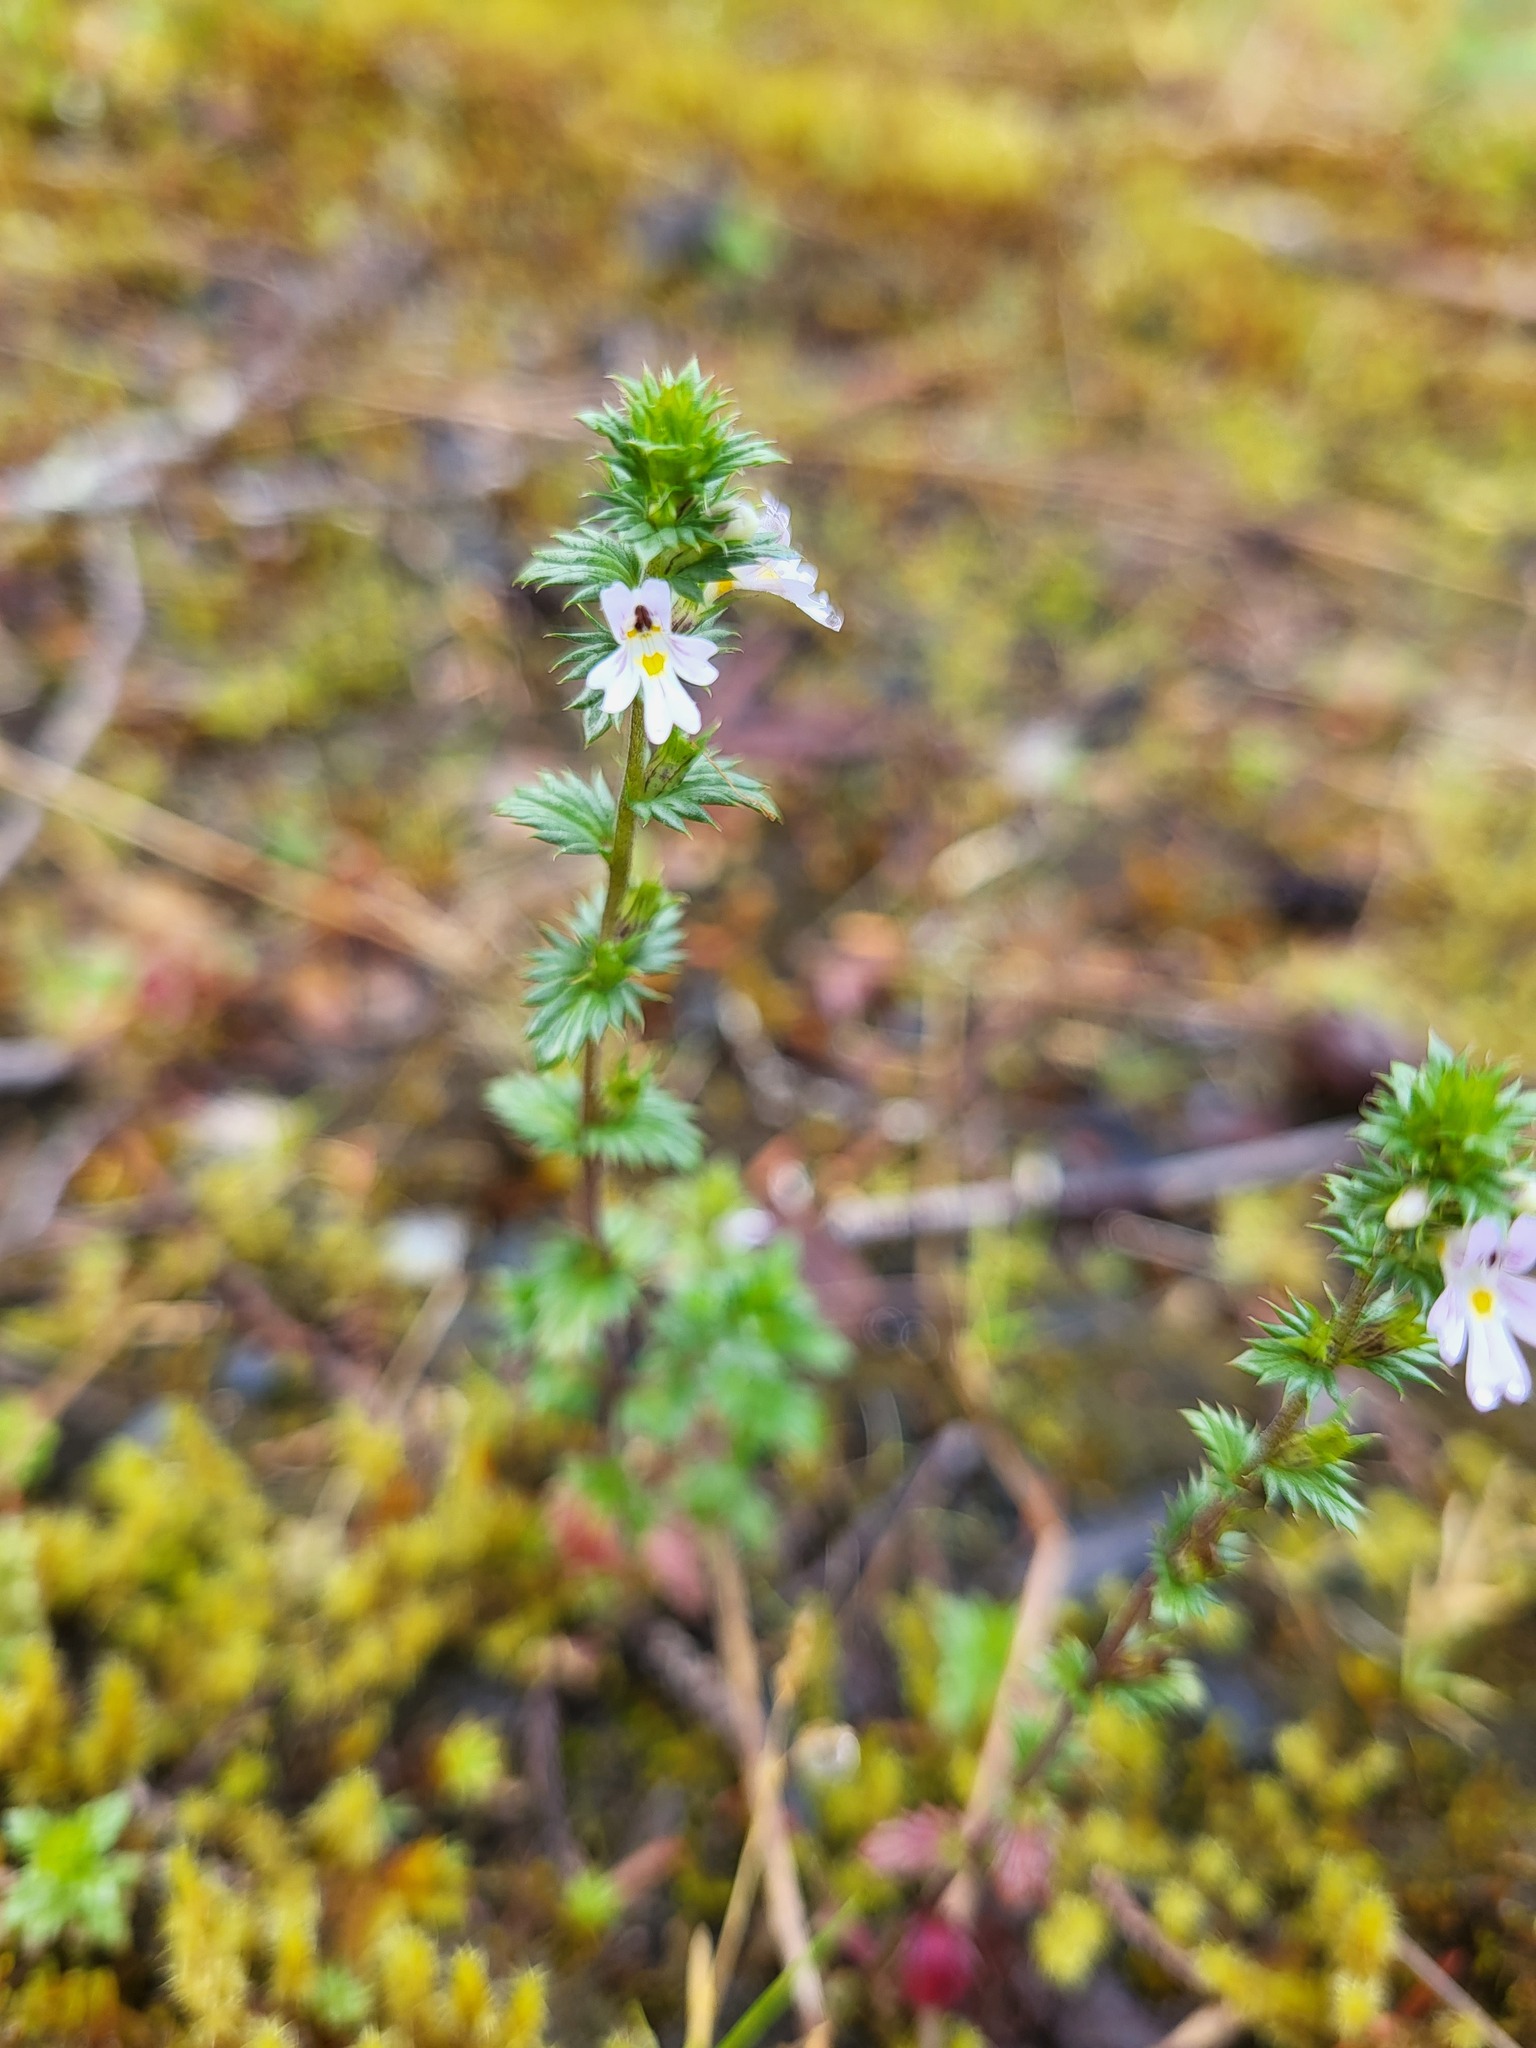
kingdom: Plantae
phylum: Tracheophyta
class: Magnoliopsida
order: Lamiales
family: Orobanchaceae
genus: Euphrasia
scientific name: Euphrasia nemorosa
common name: Common eyebright
